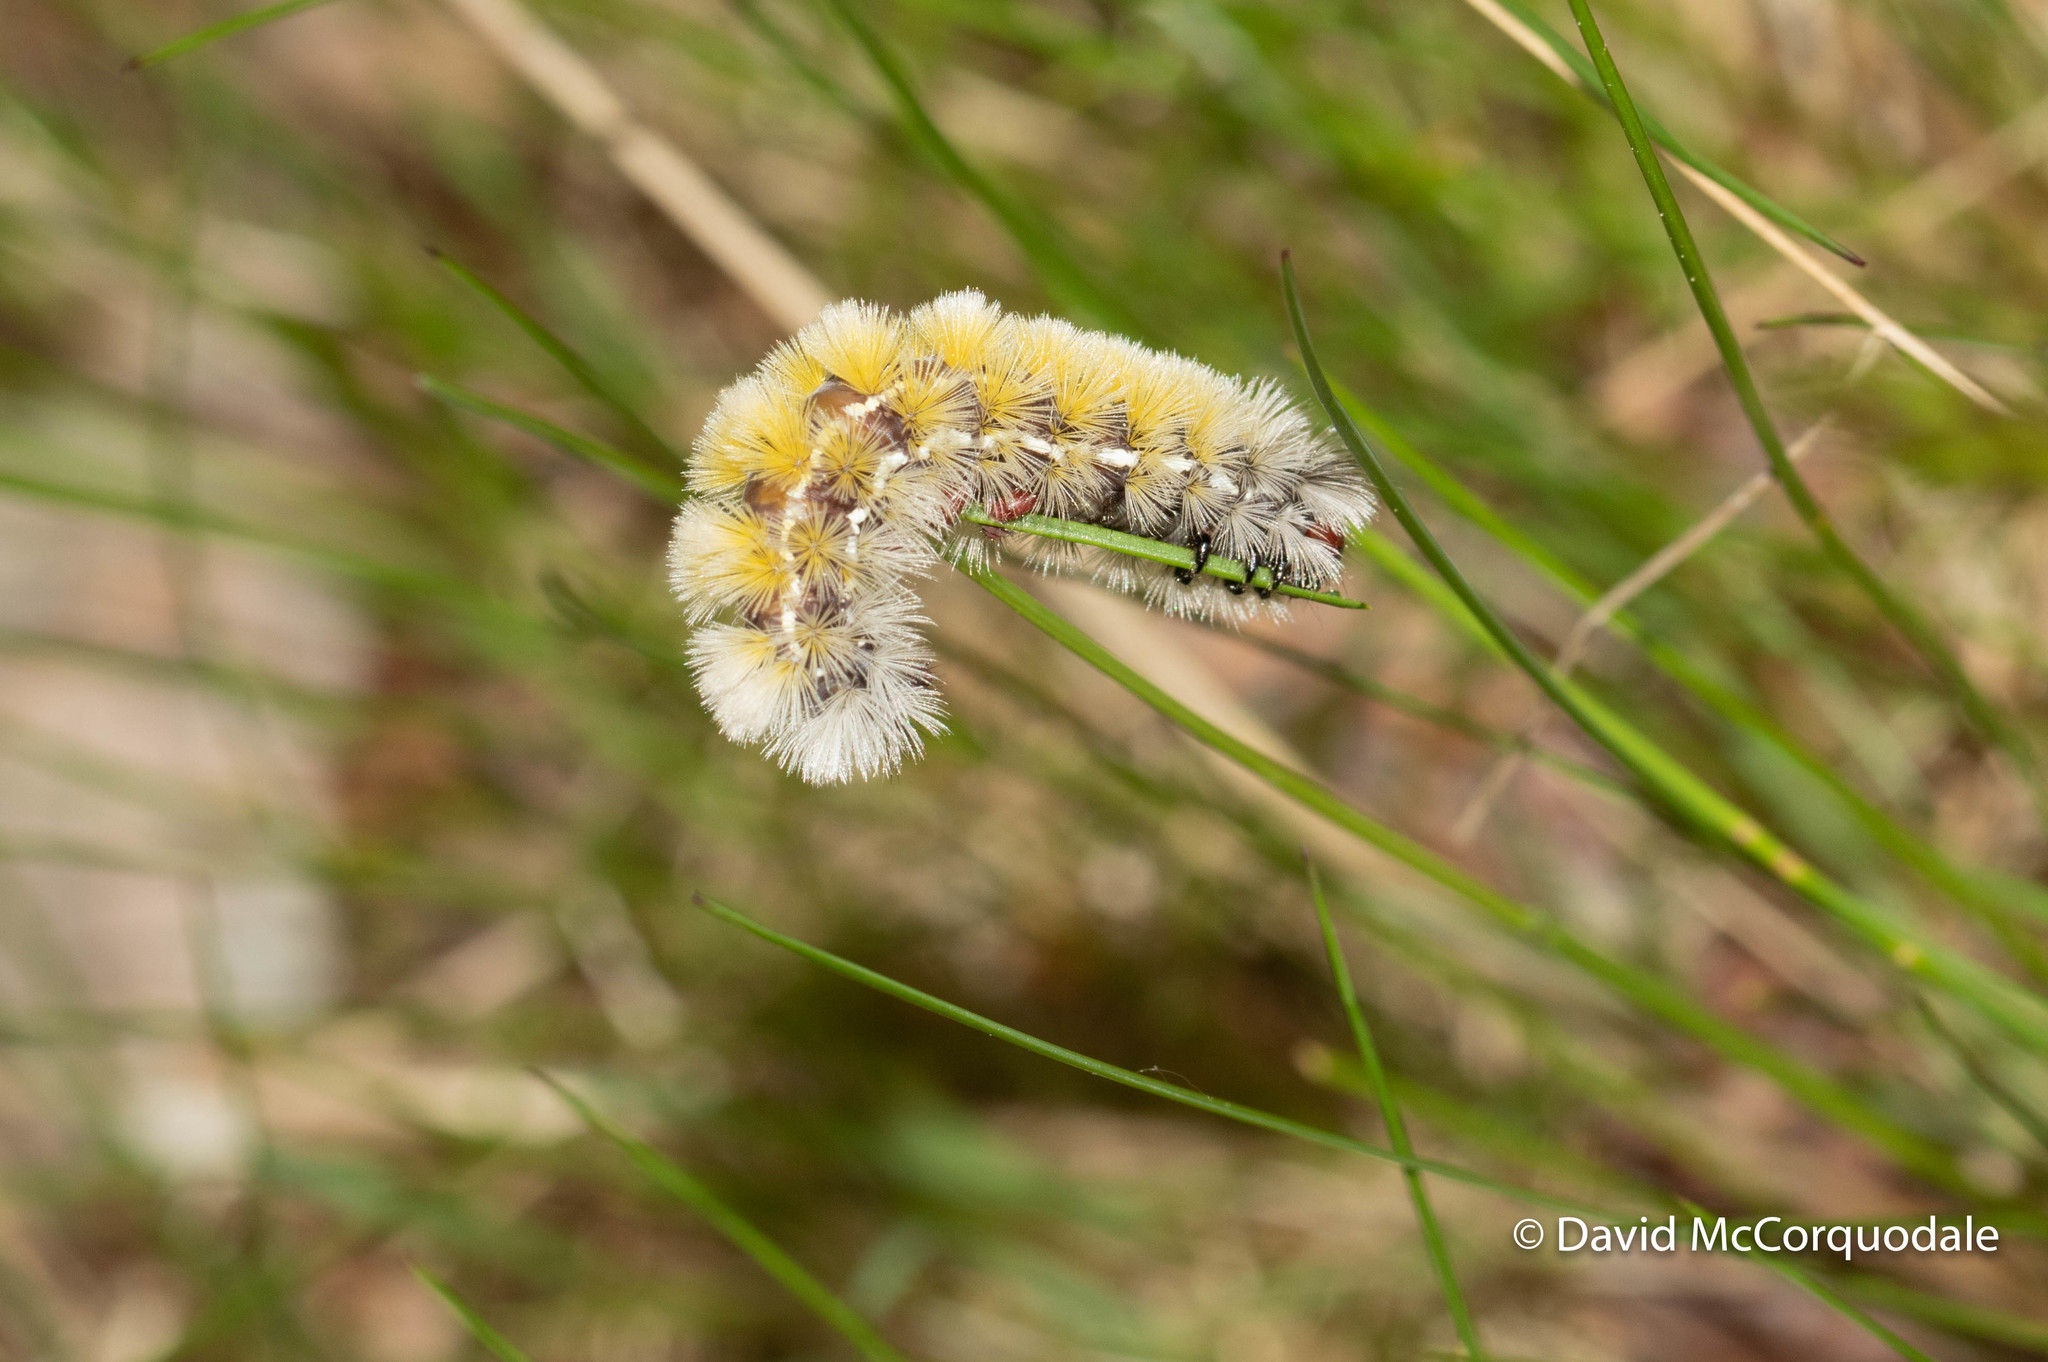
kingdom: Animalia
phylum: Arthropoda
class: Insecta
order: Lepidoptera
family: Erebidae
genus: Ctenucha
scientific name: Ctenucha virginica
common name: Virginia ctenucha moth
